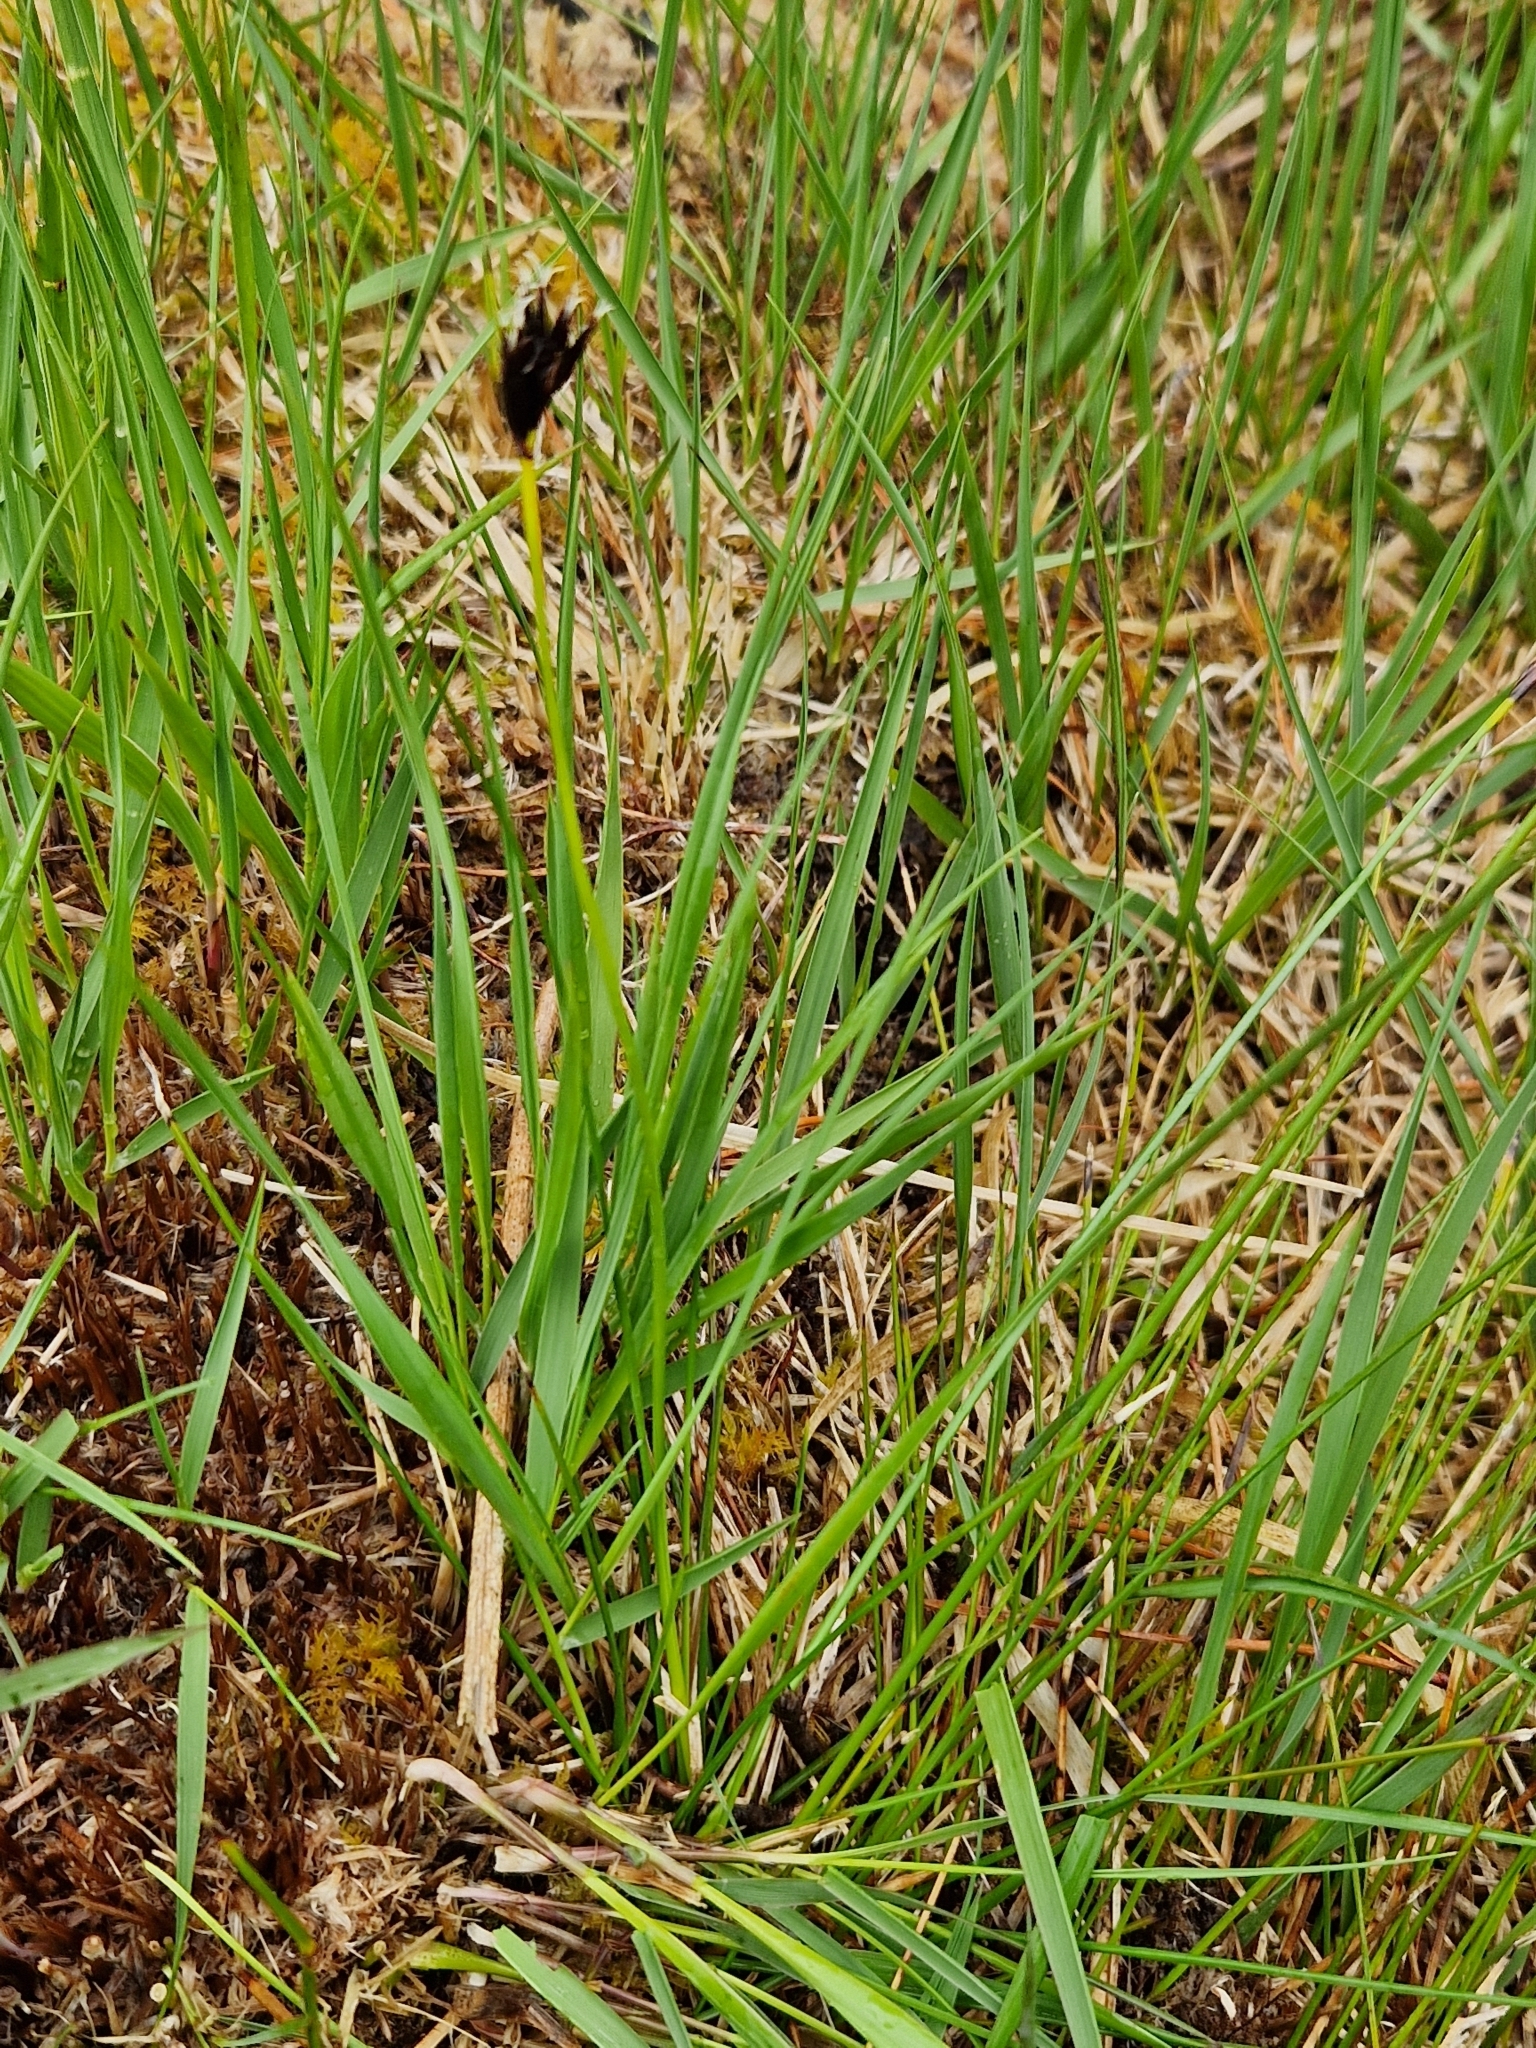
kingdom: Plantae
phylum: Tracheophyta
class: Liliopsida
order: Poales
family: Cyperaceae
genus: Schoenus
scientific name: Schoenus nigricans
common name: Black bog-rush
